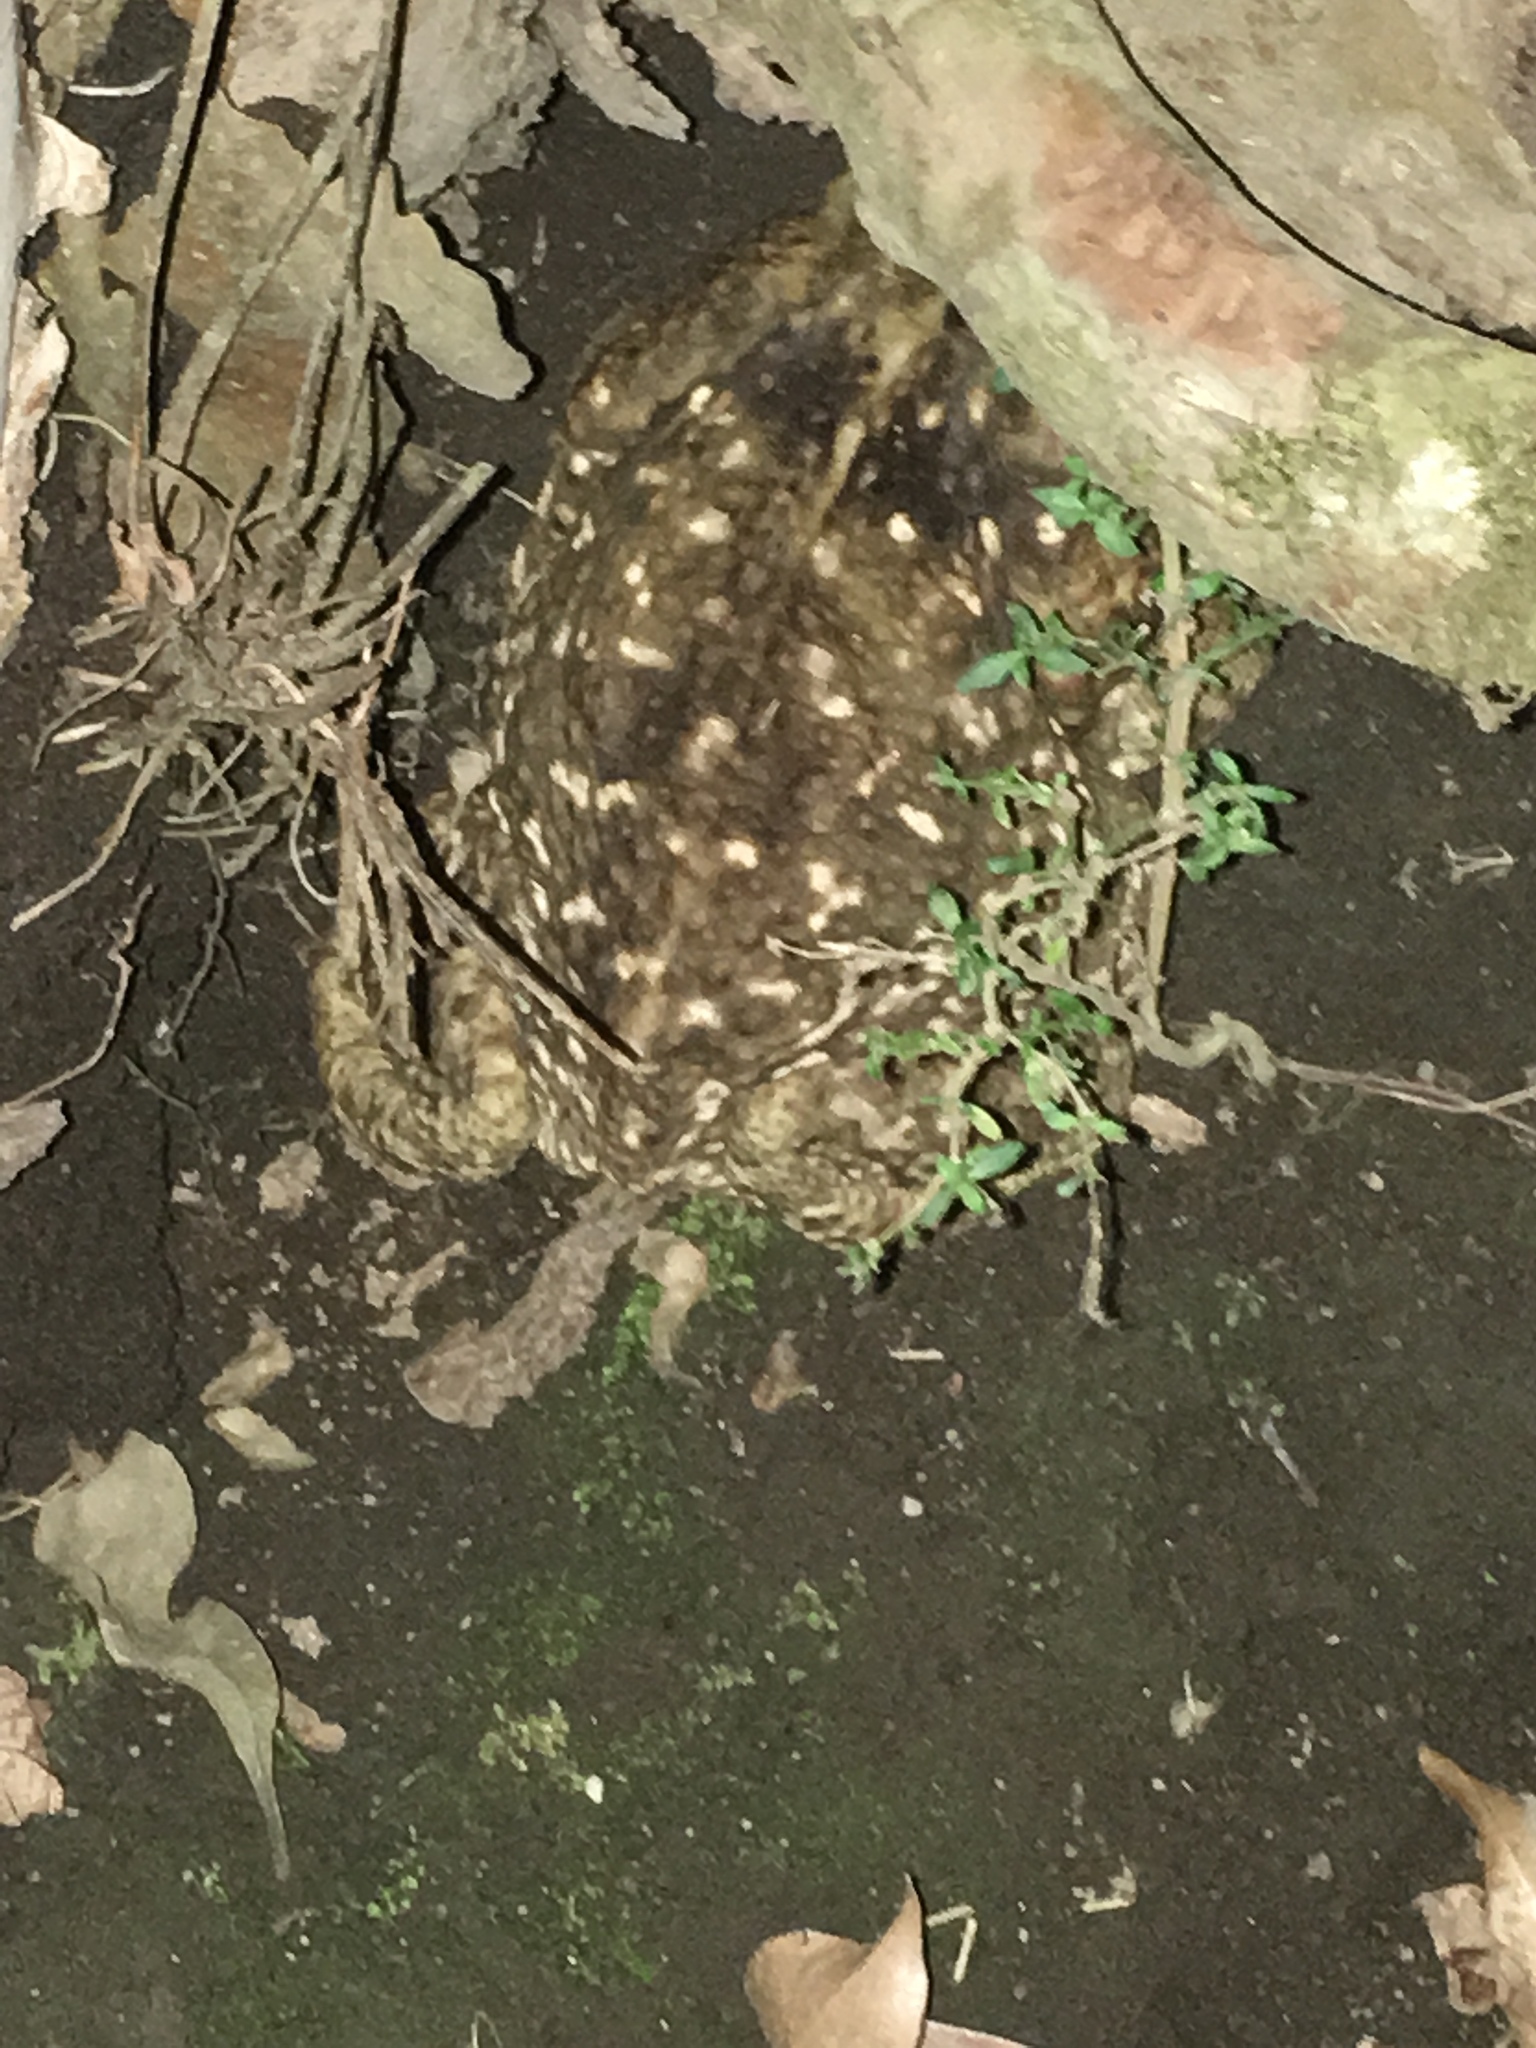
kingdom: Animalia
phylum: Chordata
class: Amphibia
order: Anura
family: Bufonidae
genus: Rhinella
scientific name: Rhinella horribilis
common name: Mesoamerican cane toad
